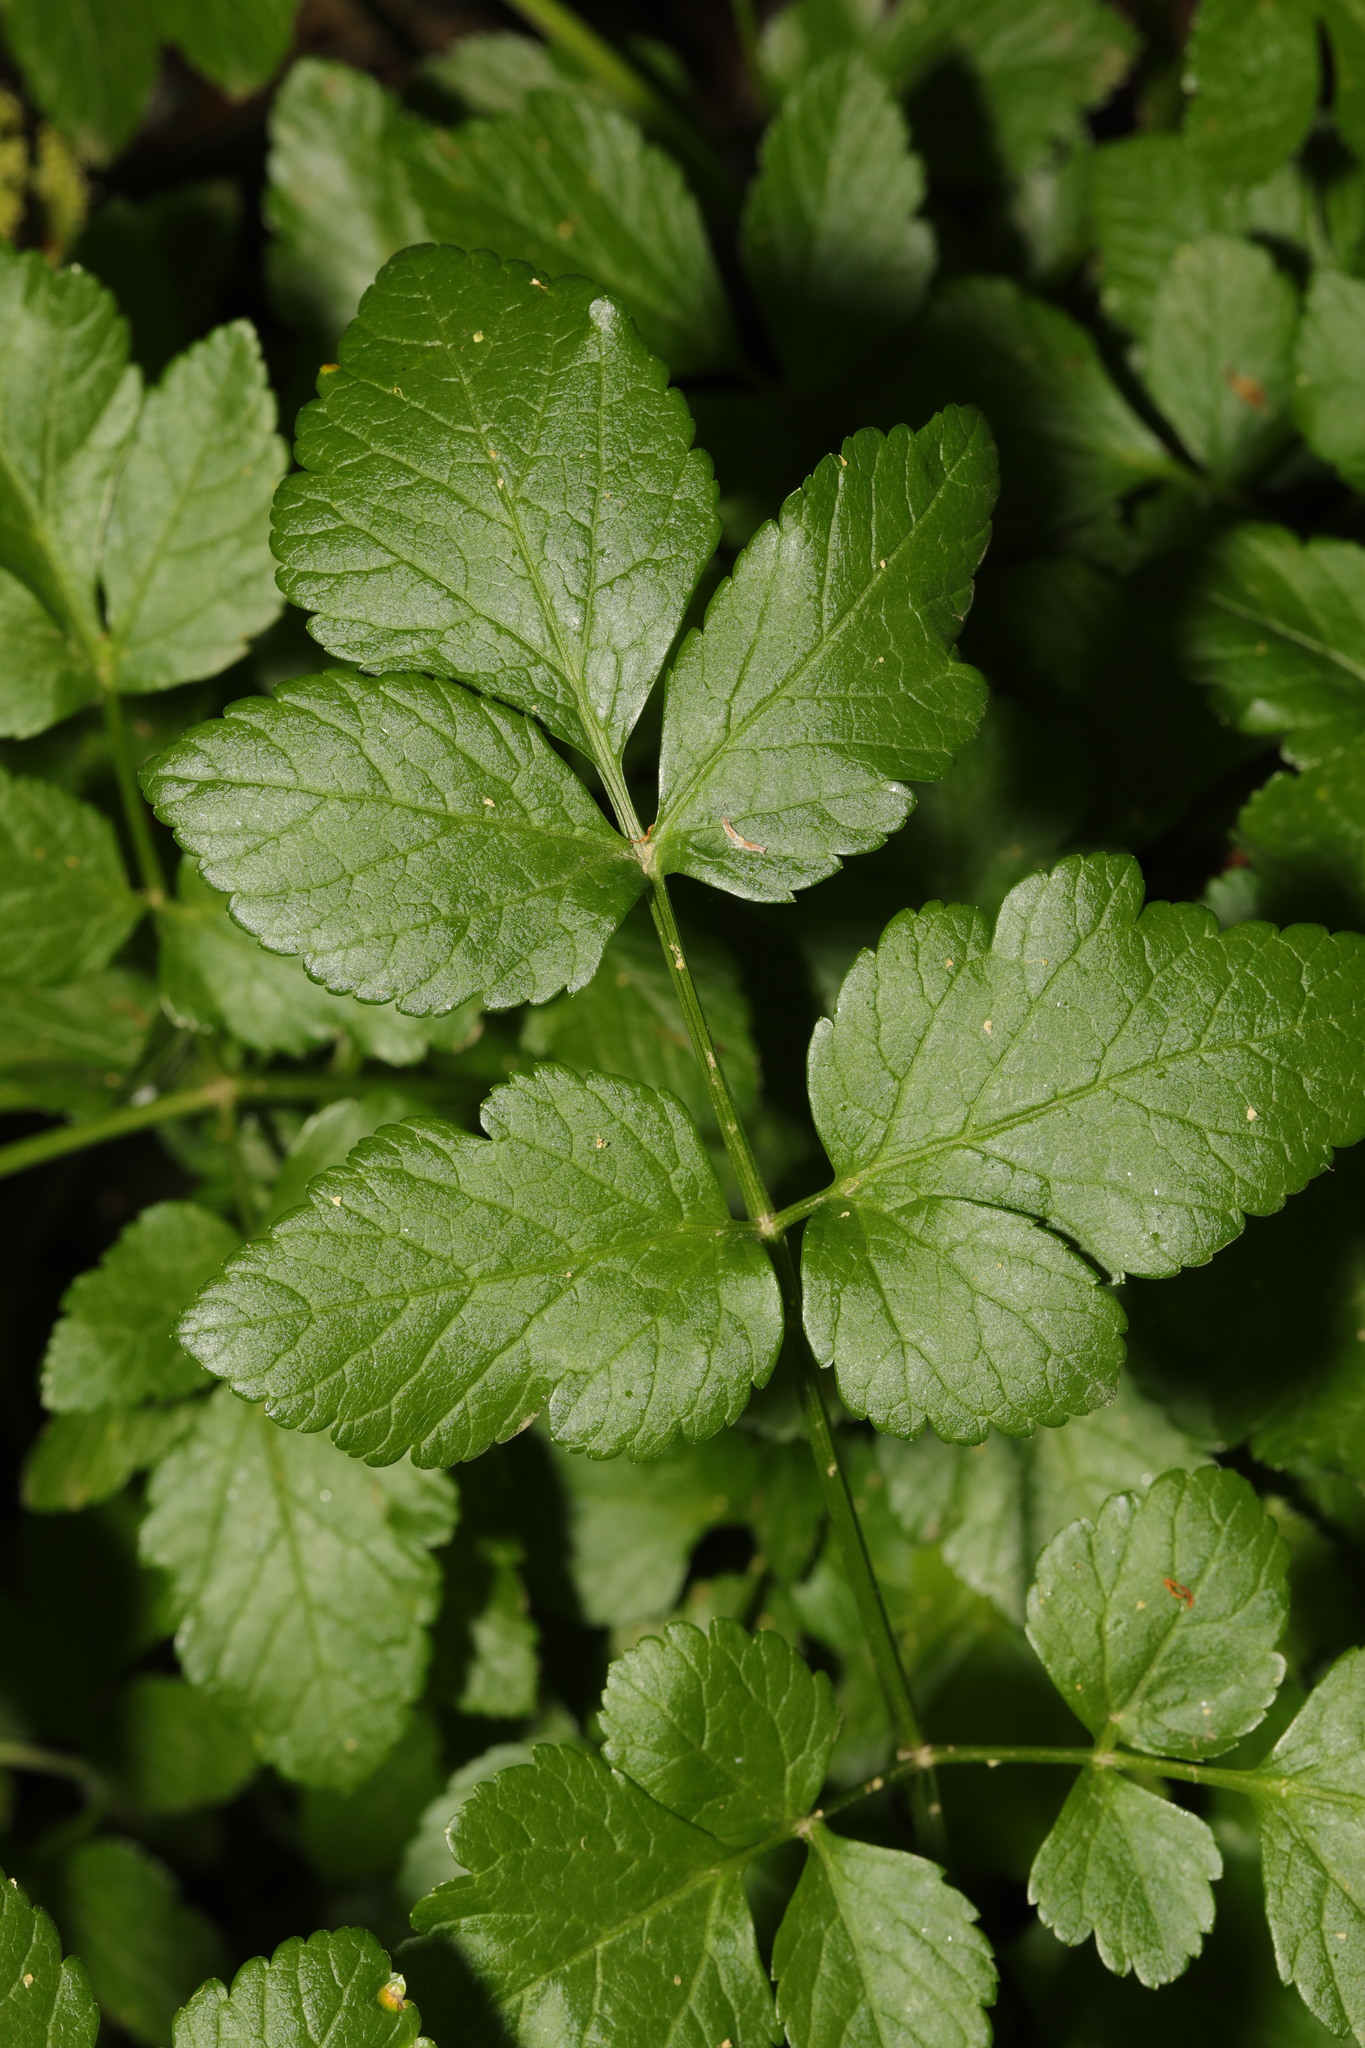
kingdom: Plantae
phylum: Tracheophyta
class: Magnoliopsida
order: Apiales
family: Apiaceae
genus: Smyrnium
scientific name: Smyrnium olusatrum
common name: Alexanders
